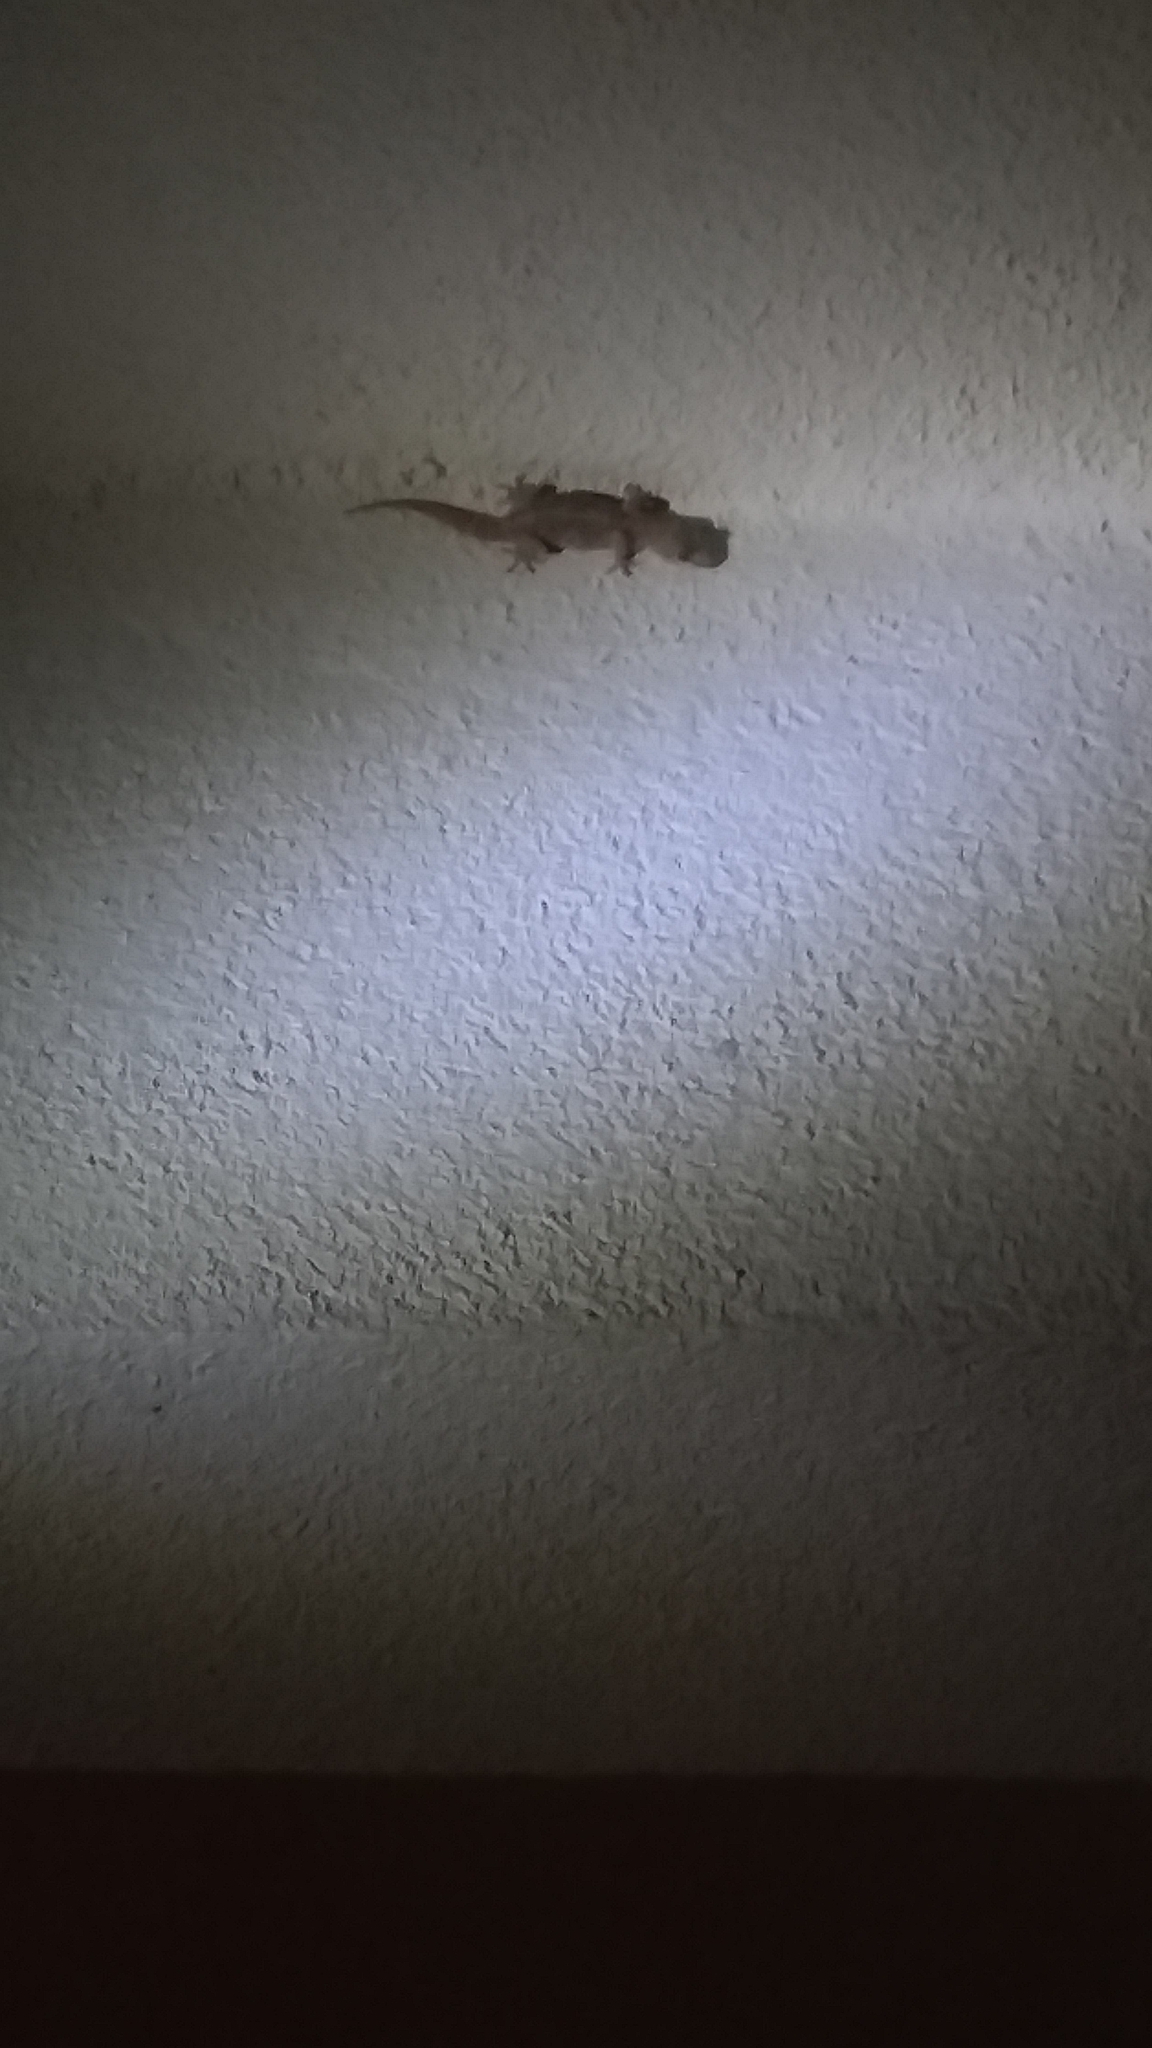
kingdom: Animalia
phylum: Chordata
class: Squamata
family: Gekkonidae
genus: Hemidactylus
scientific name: Hemidactylus turcicus
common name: Turkish gecko
